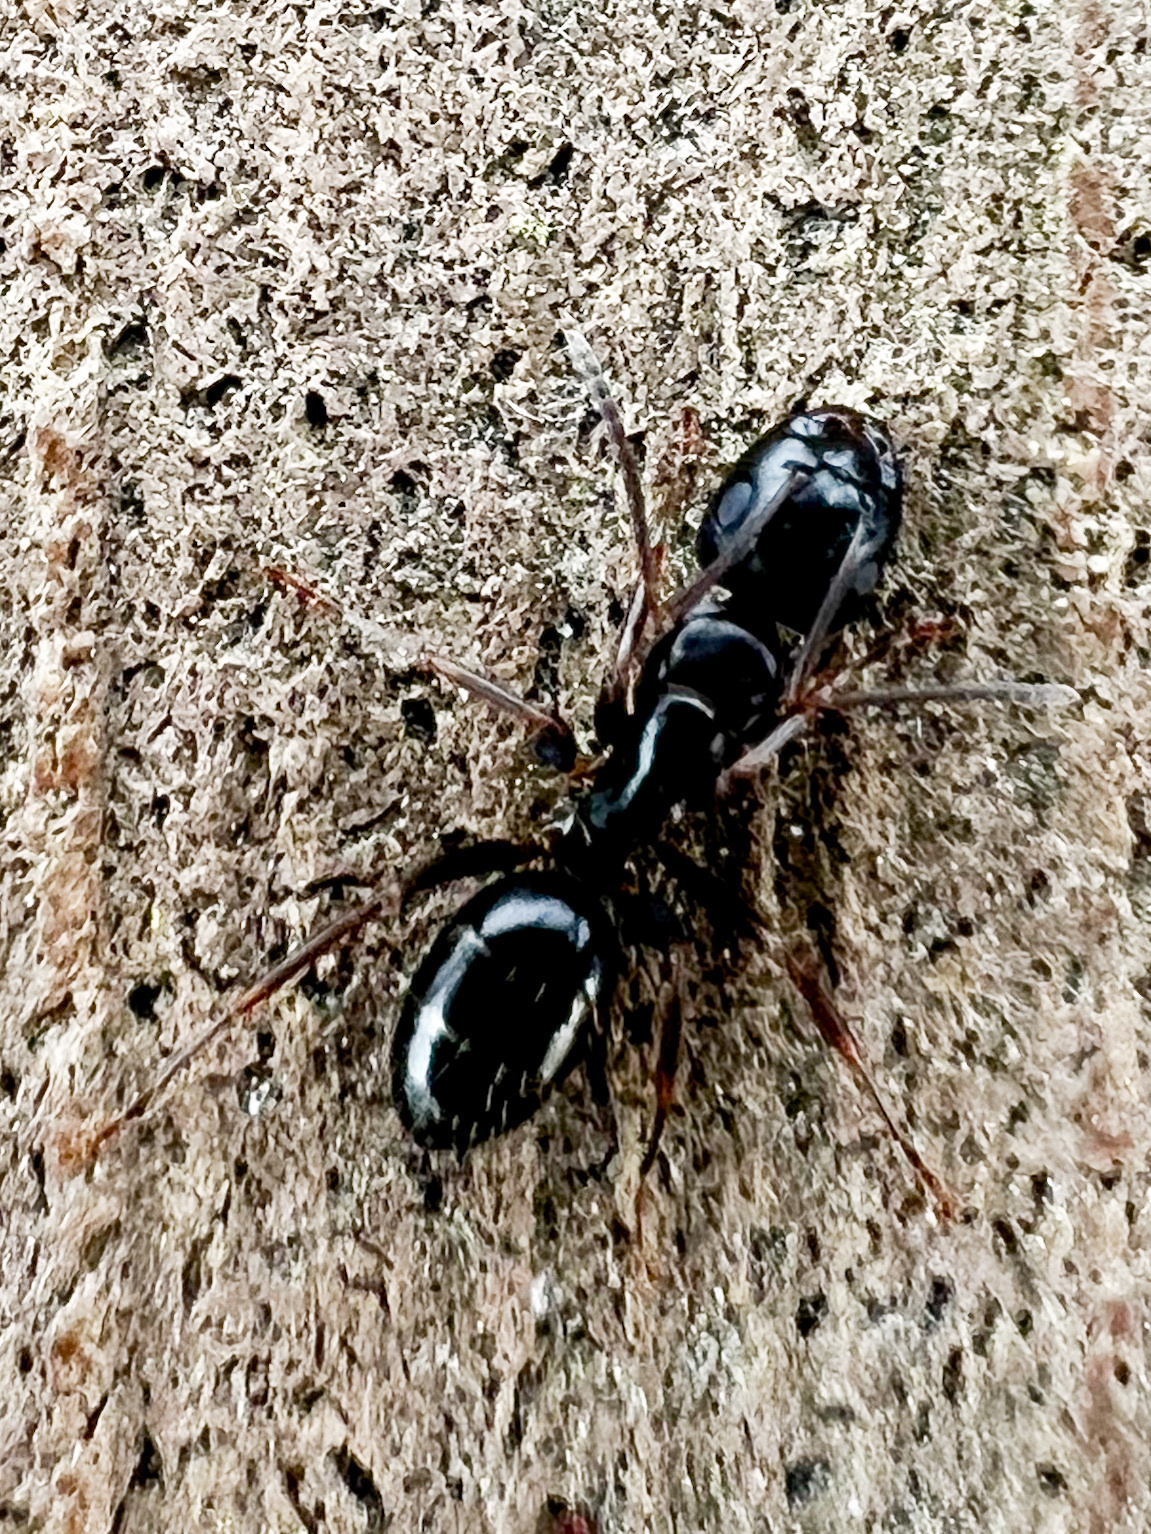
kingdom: Animalia
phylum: Arthropoda
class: Insecta
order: Hymenoptera
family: Formicidae
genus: Camponotus
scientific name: Camponotus fallax
